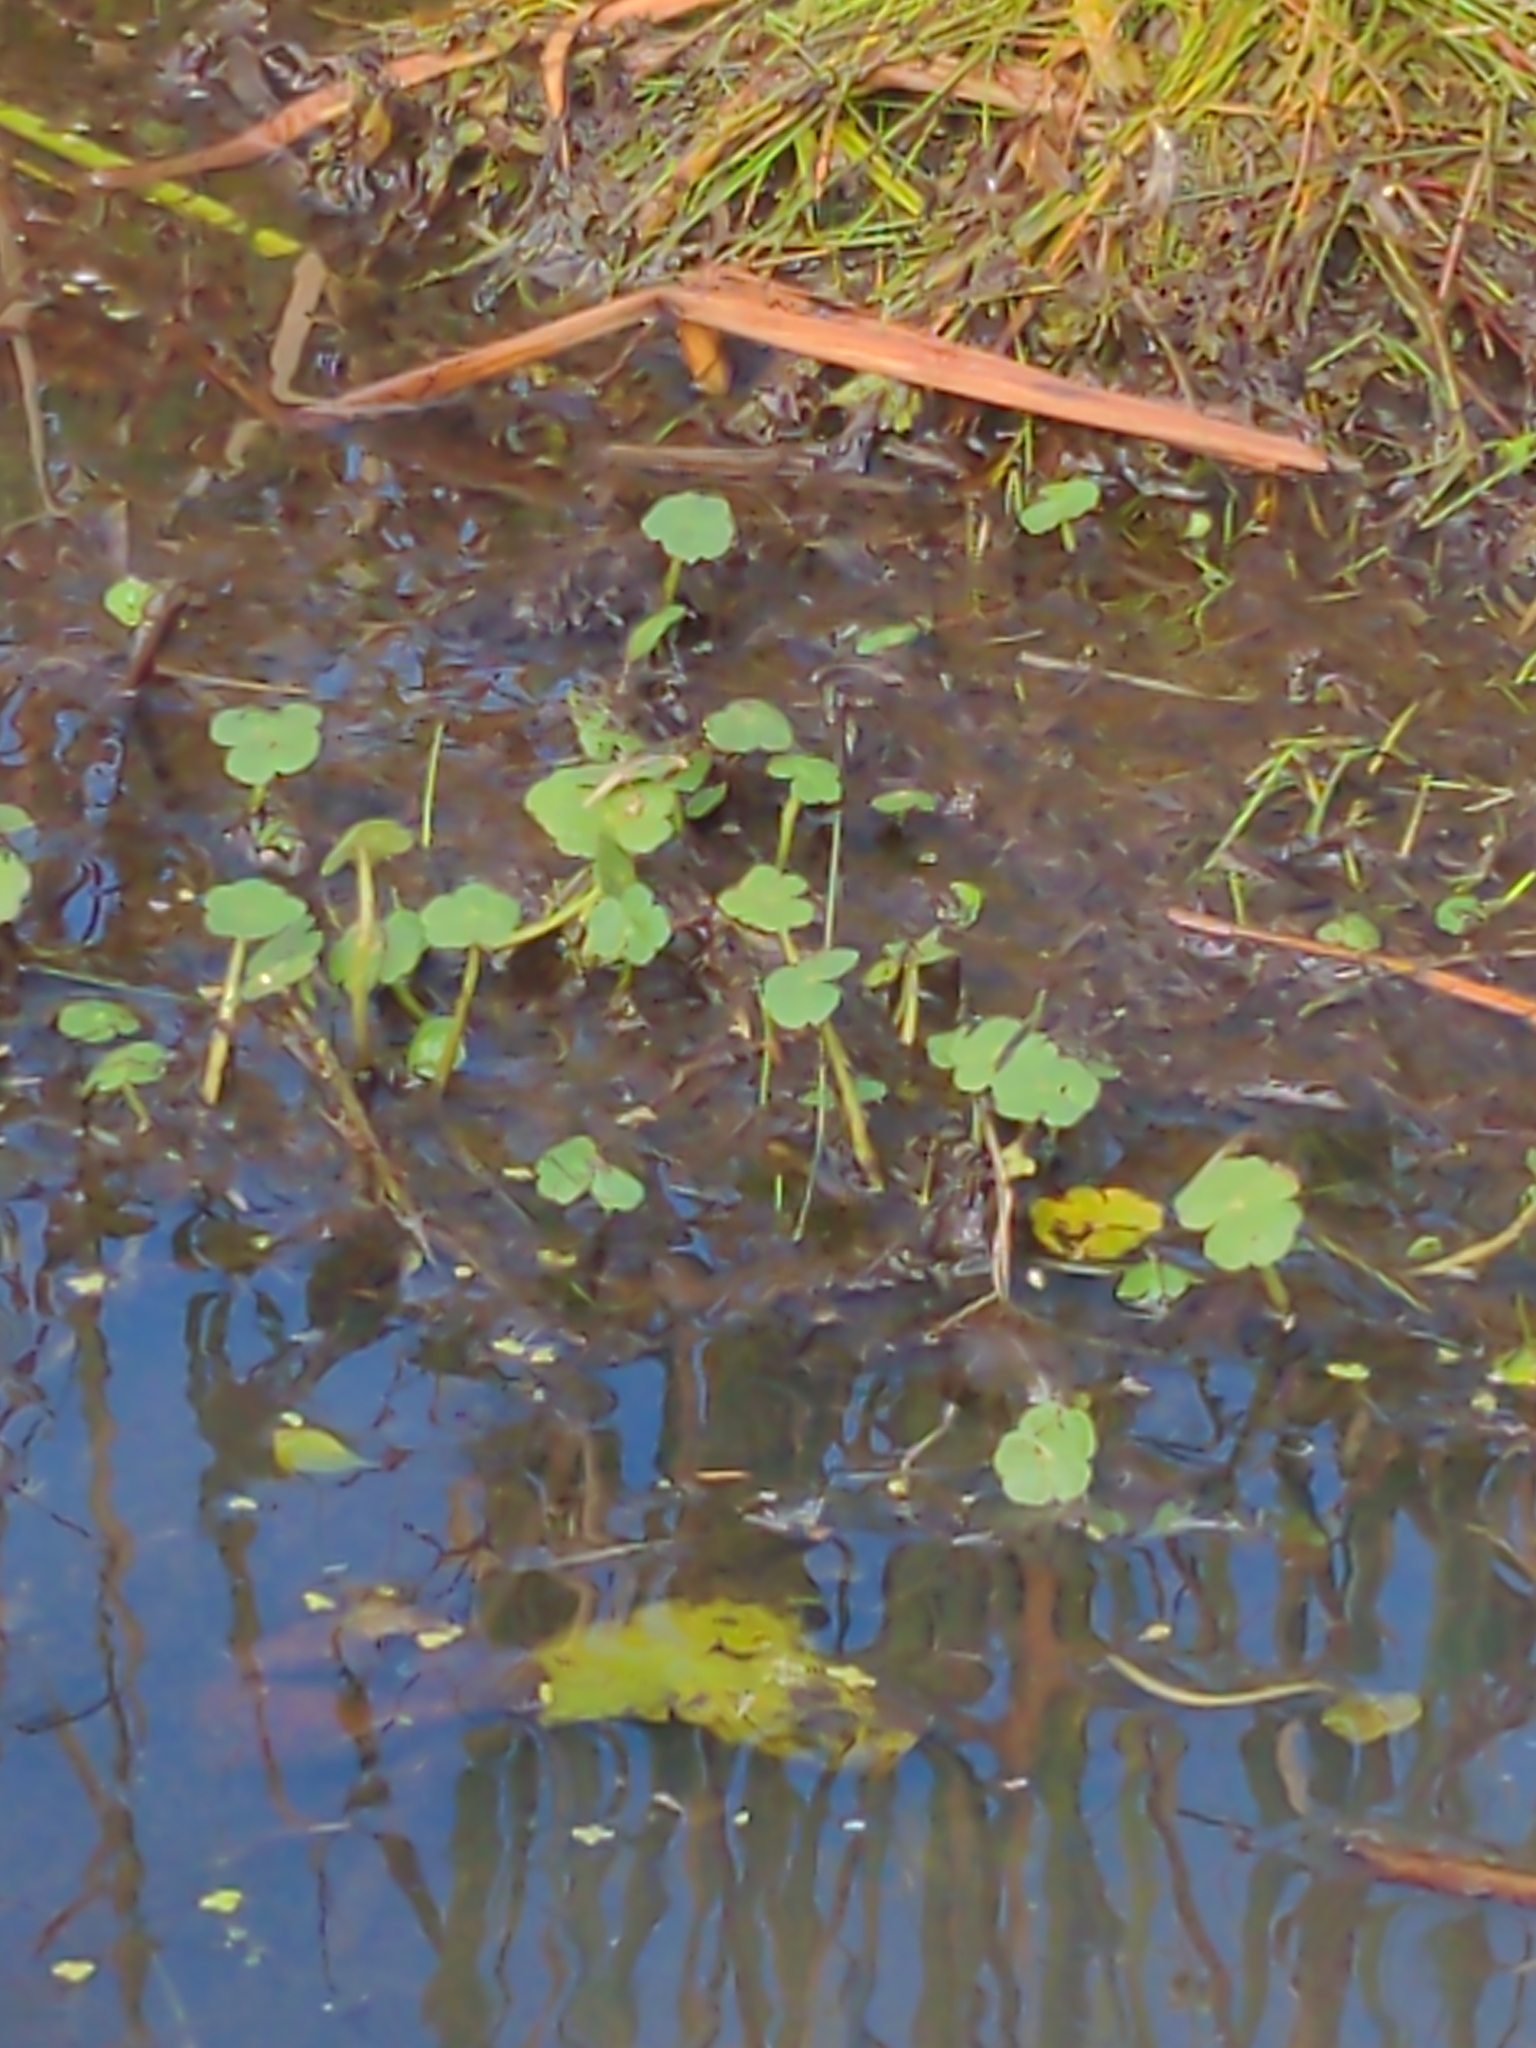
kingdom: Plantae
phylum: Tracheophyta
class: Magnoliopsida
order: Apiales
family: Araliaceae
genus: Hydrocotyle
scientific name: Hydrocotyle ranunculoides
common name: Floating pennywort
